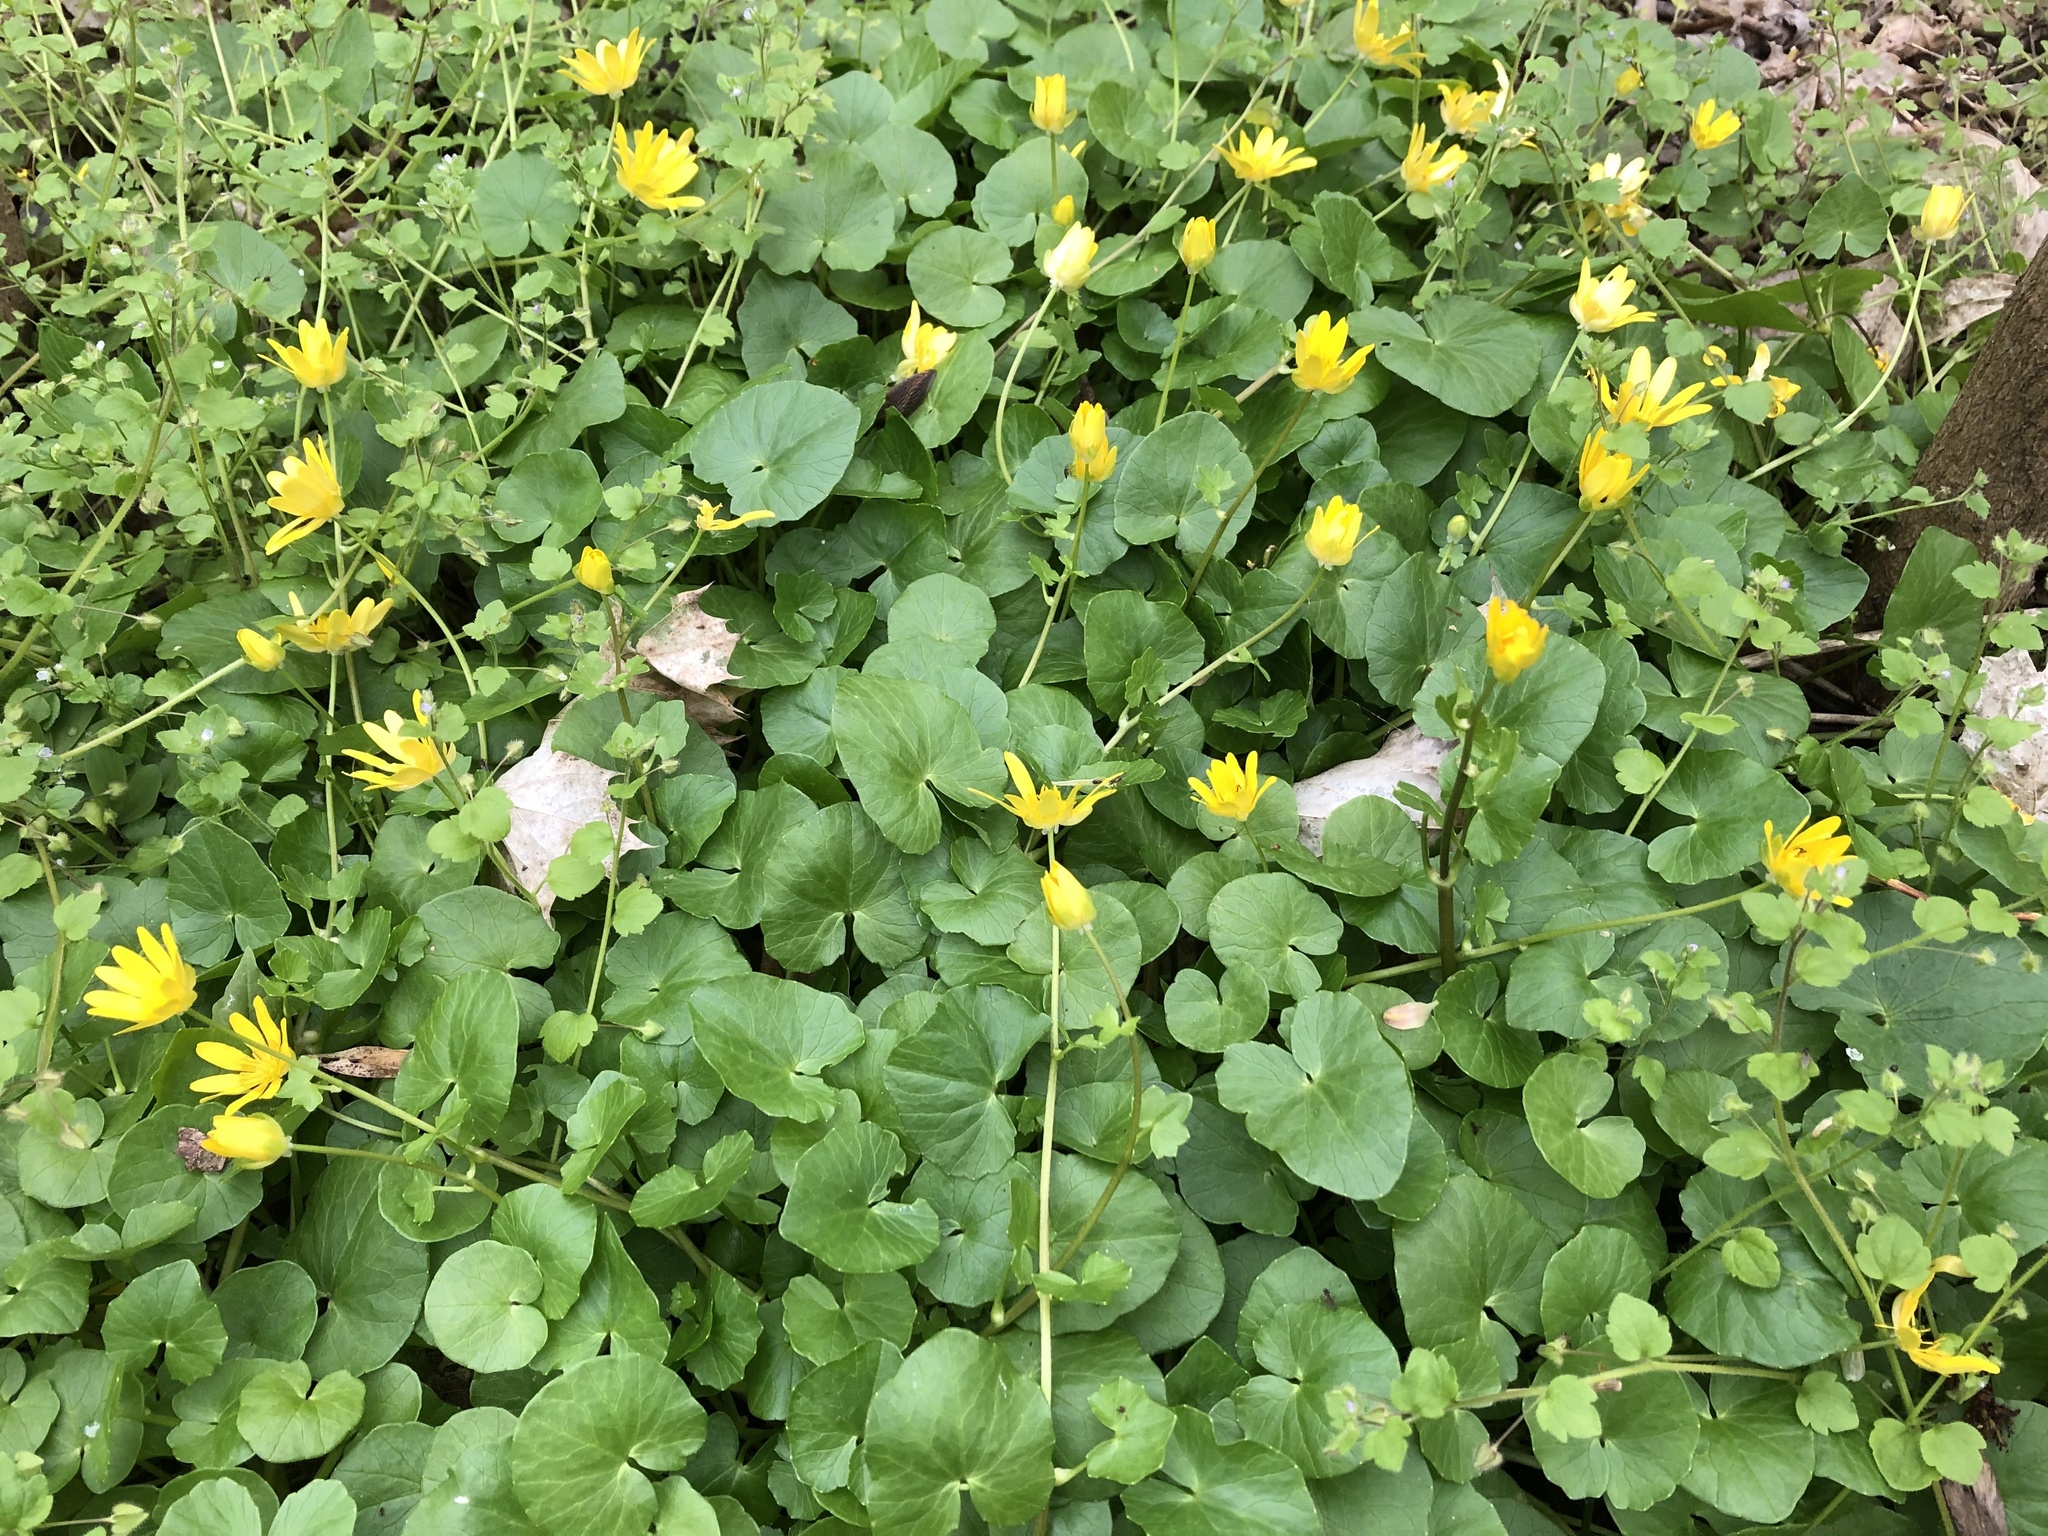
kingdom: Plantae
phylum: Tracheophyta
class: Magnoliopsida
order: Ranunculales
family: Ranunculaceae
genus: Ficaria
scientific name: Ficaria verna
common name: Lesser celandine
